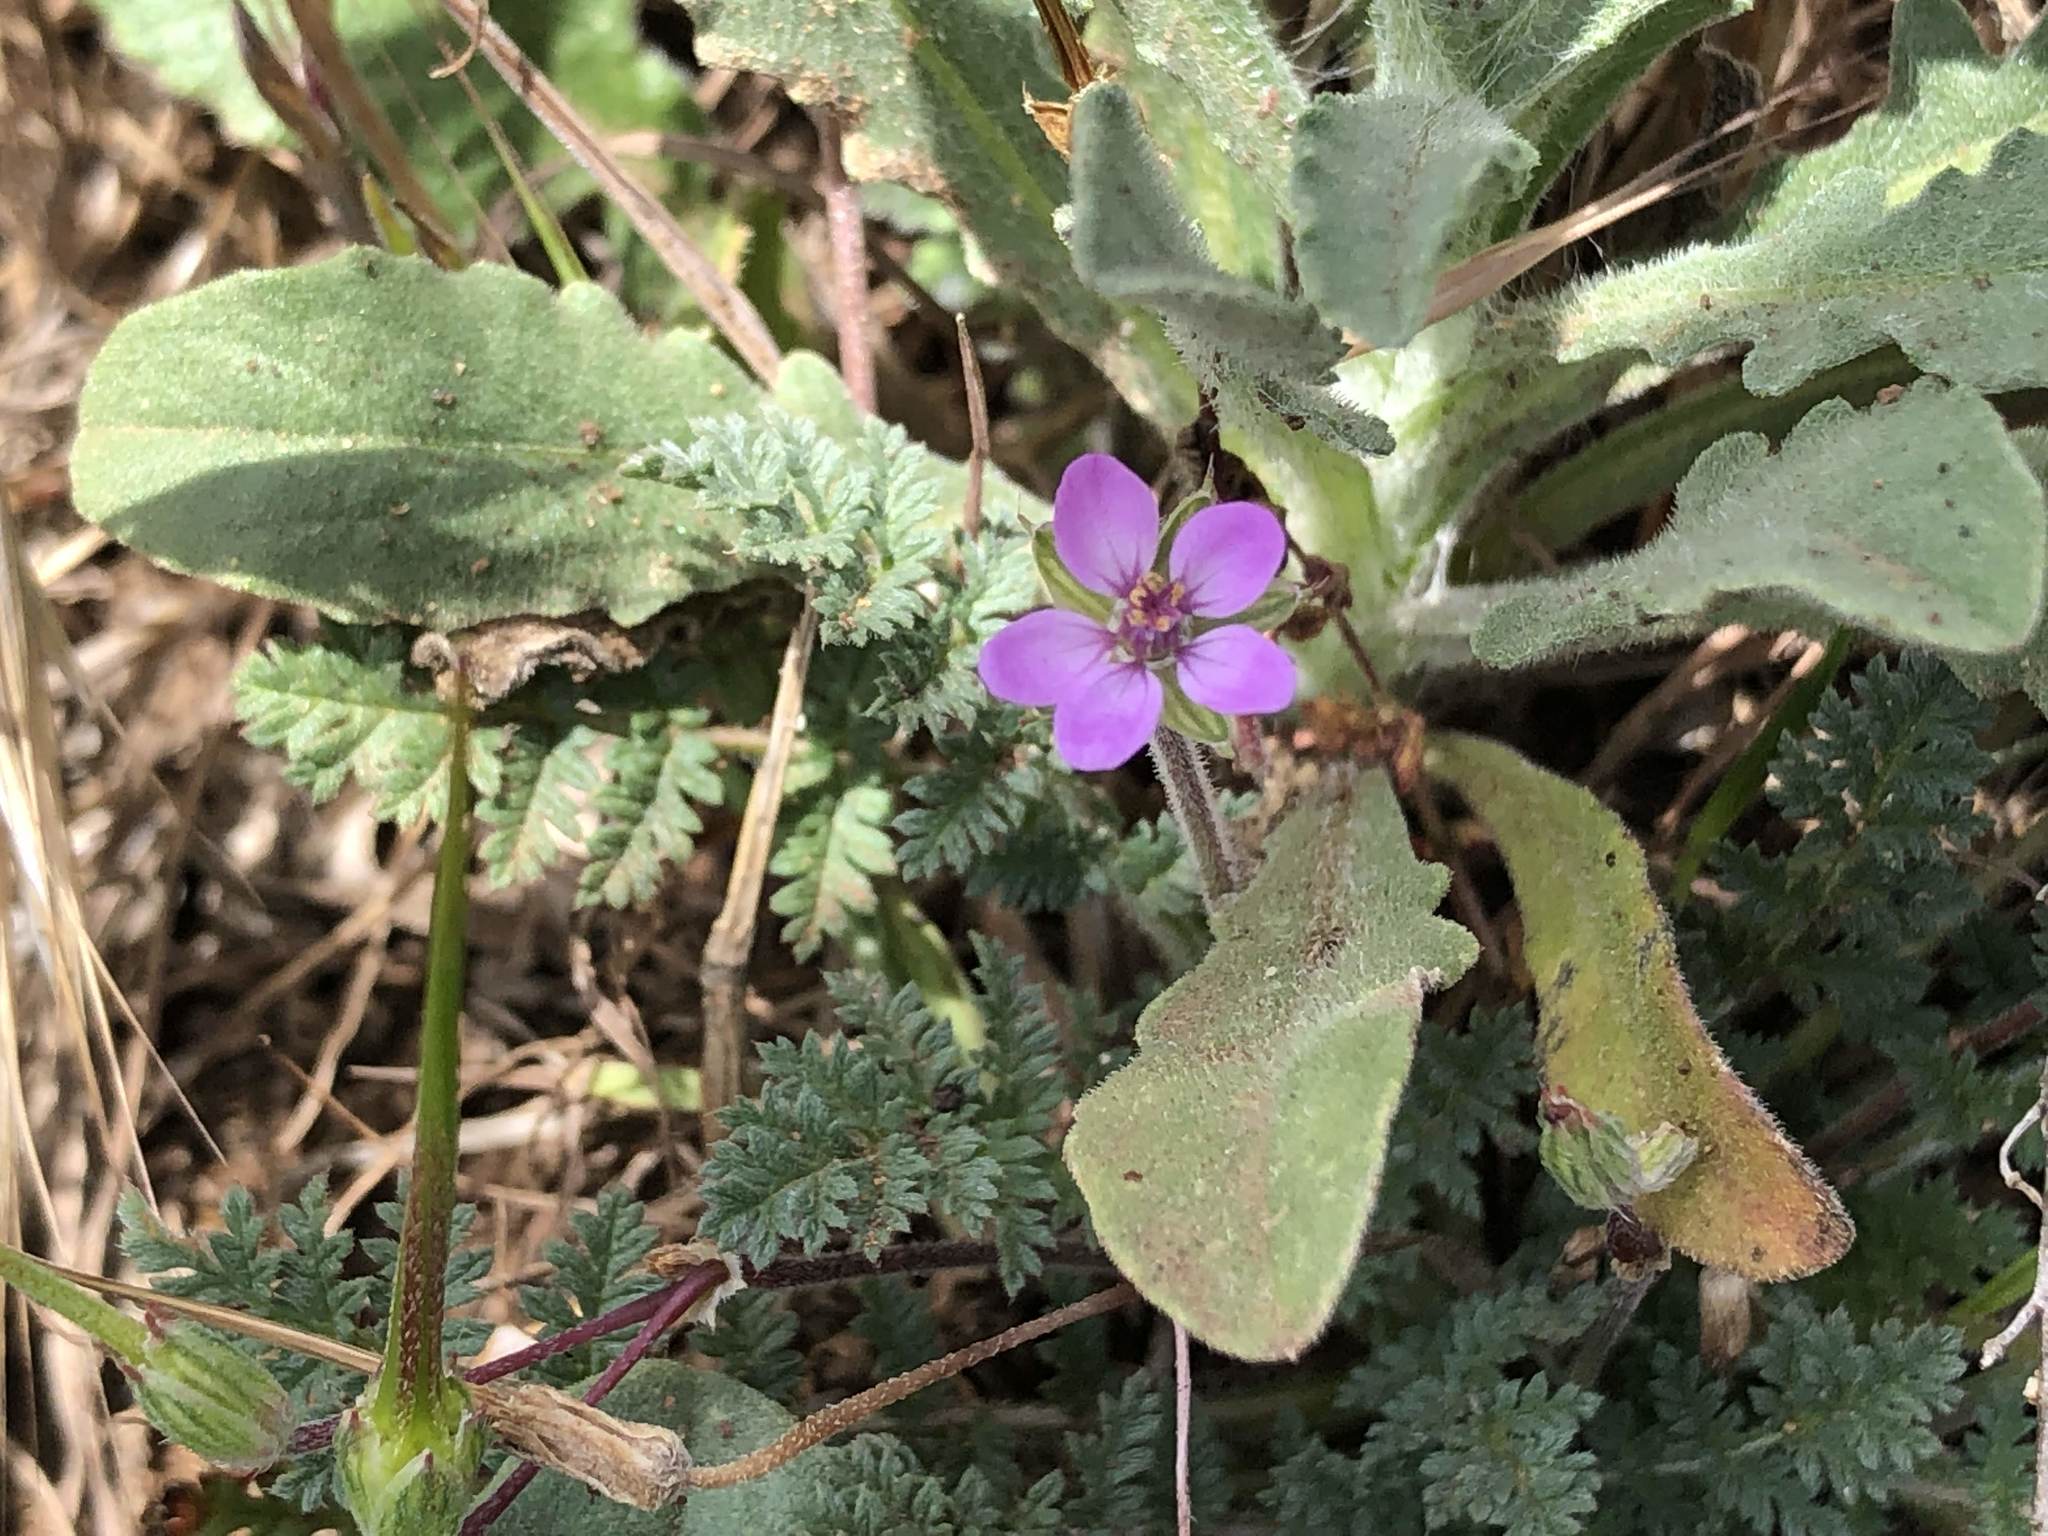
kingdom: Plantae
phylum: Tracheophyta
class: Magnoliopsida
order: Geraniales
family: Geraniaceae
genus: Erodium
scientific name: Erodium cicutarium
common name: Common stork's-bill
